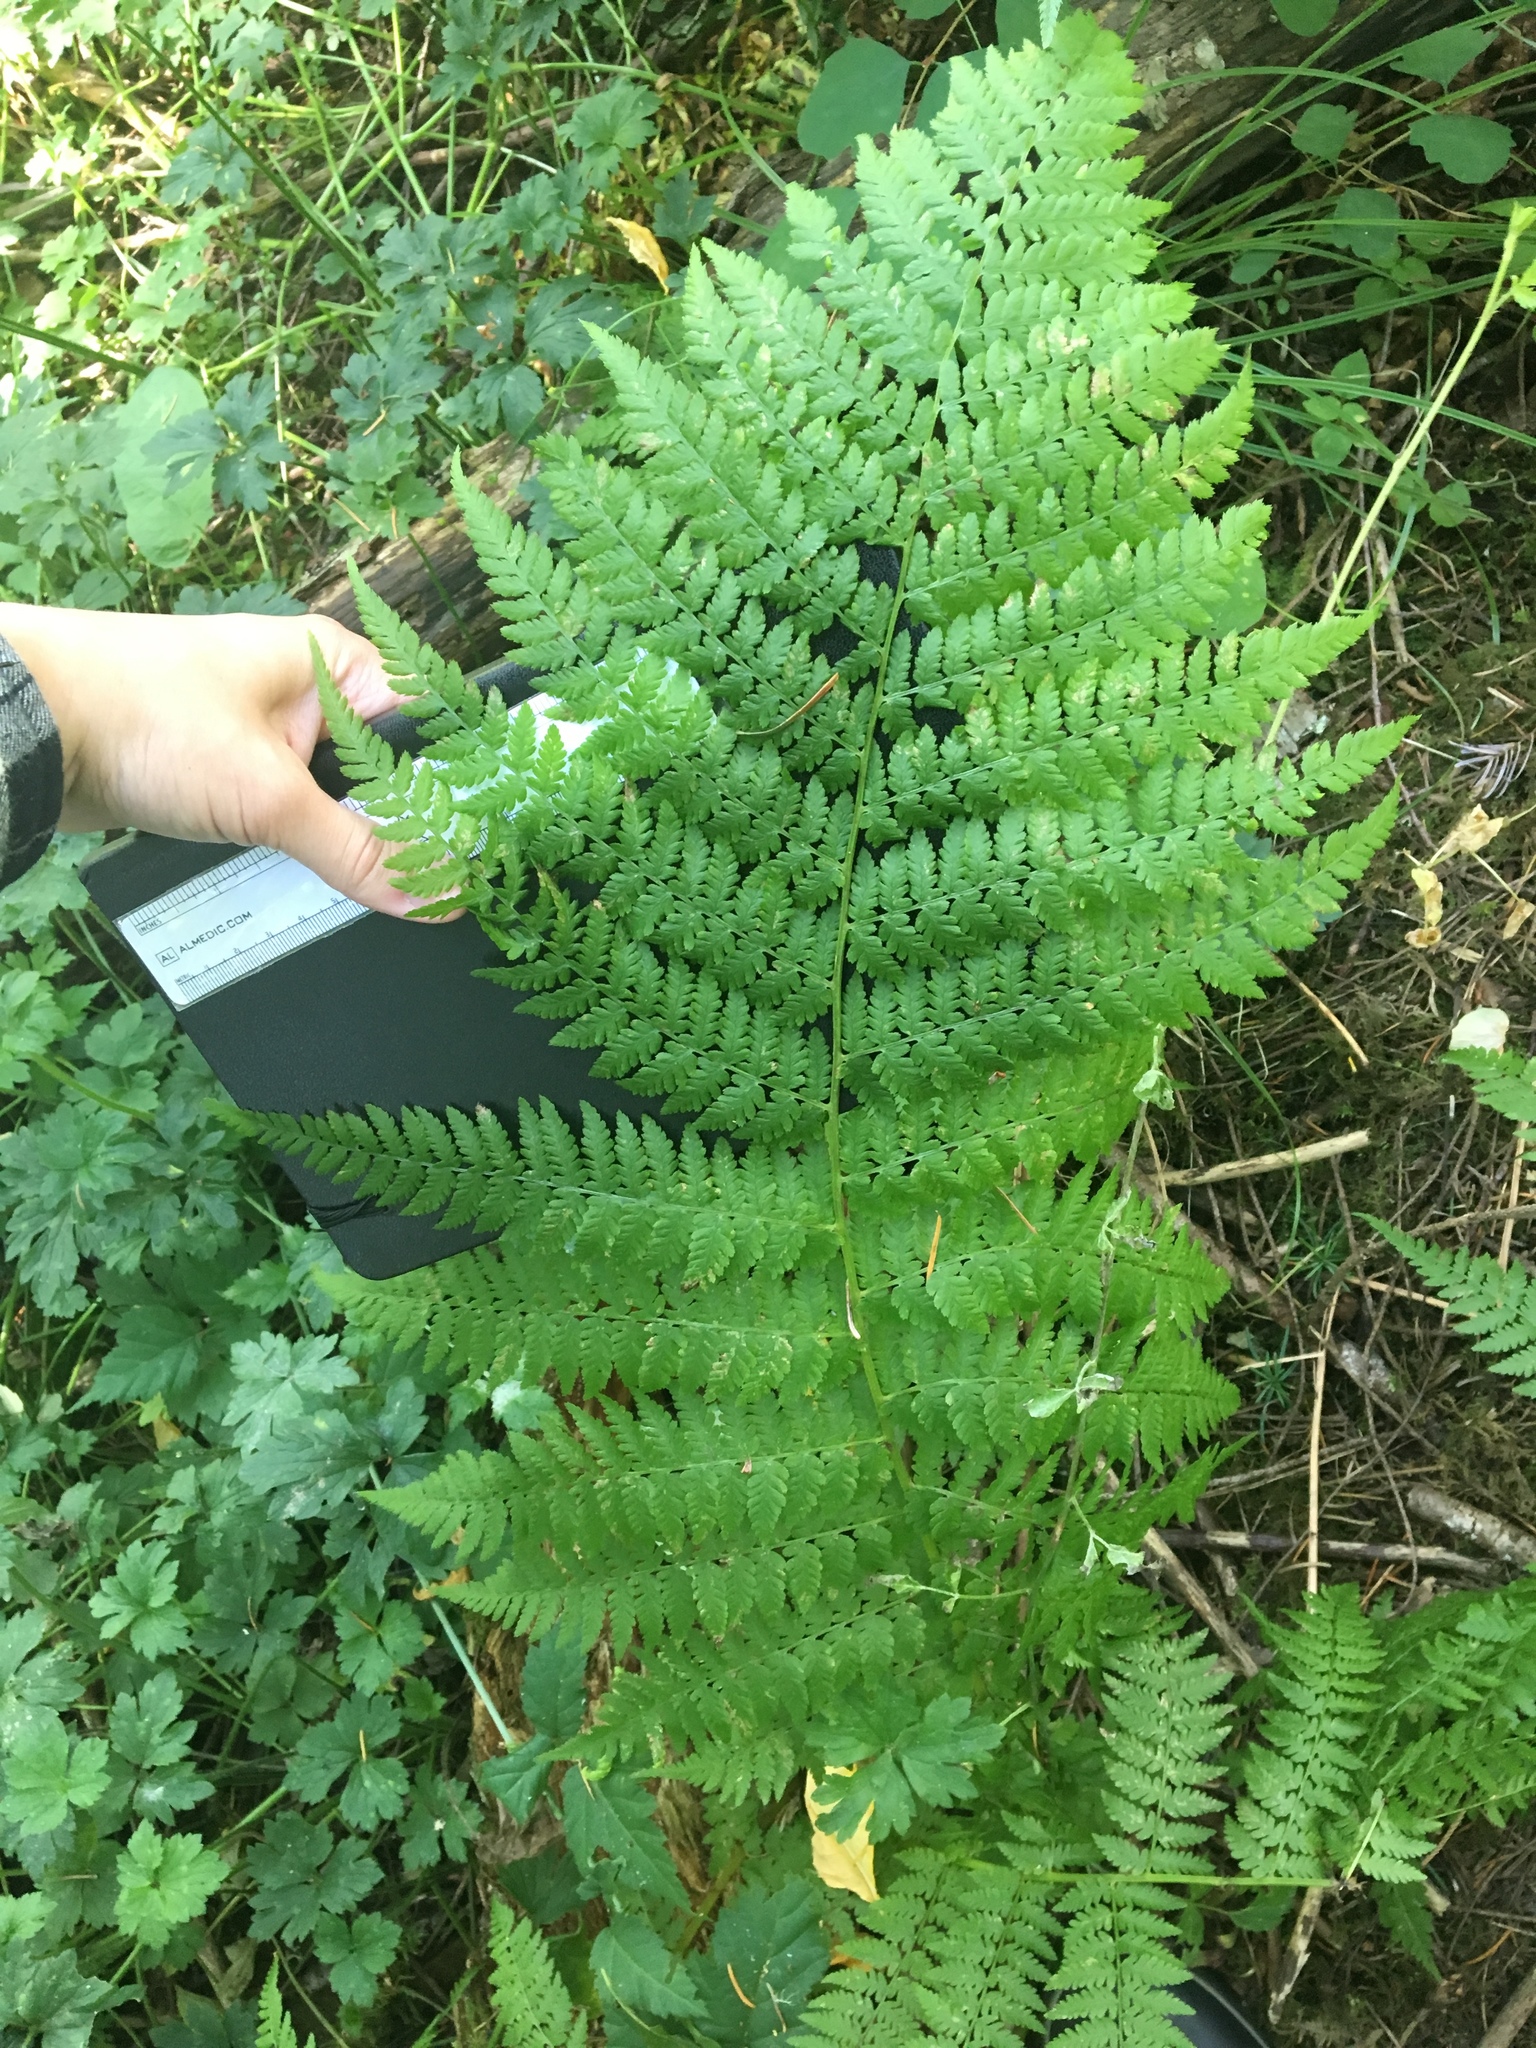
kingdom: Plantae
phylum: Tracheophyta
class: Polypodiopsida
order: Polypodiales
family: Athyriaceae
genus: Athyrium
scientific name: Athyrium filix-femina
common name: Lady fern
